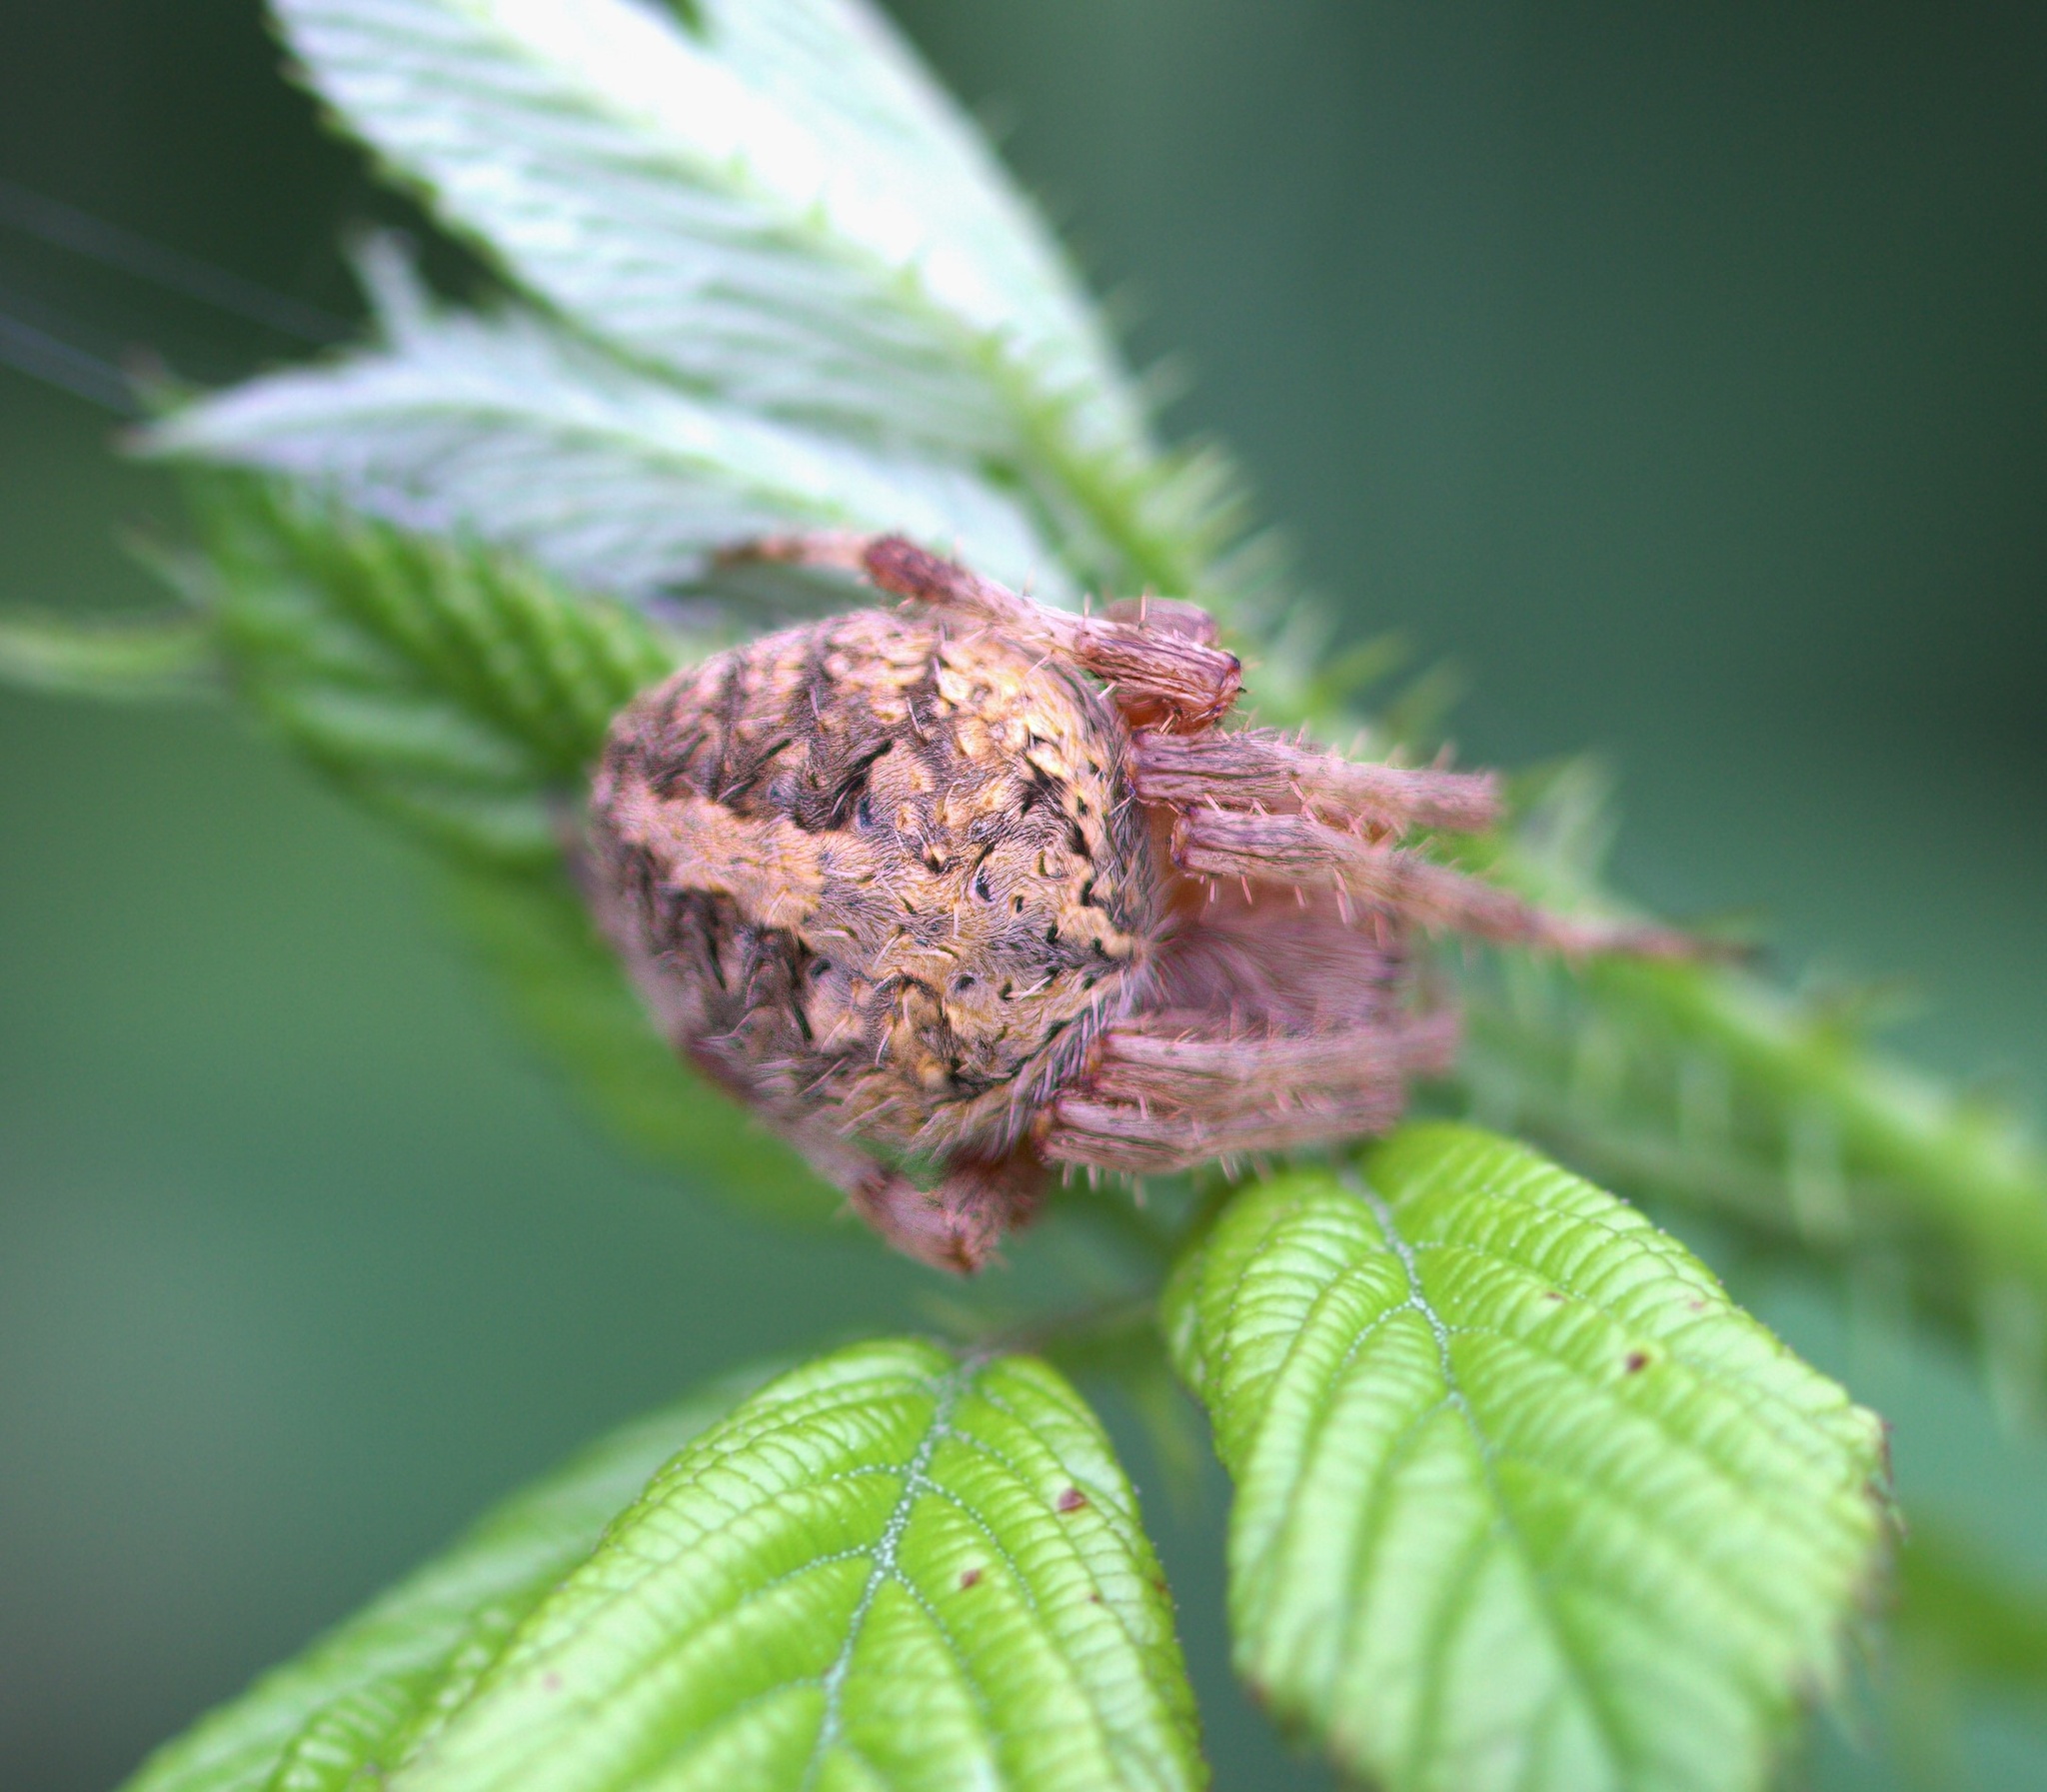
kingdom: Animalia
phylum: Arthropoda
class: Arachnida
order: Araneae
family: Araneidae
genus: Neoscona
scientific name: Neoscona crucifera
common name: Spotted orbweaver
